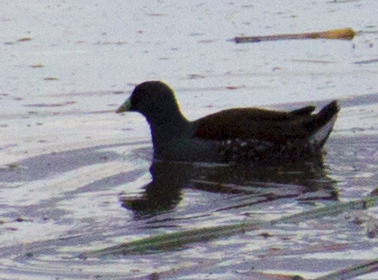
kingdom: Animalia
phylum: Chordata
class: Aves
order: Gruiformes
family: Rallidae
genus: Gallinula
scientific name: Gallinula melanops
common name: Spot-flanked gallinule
